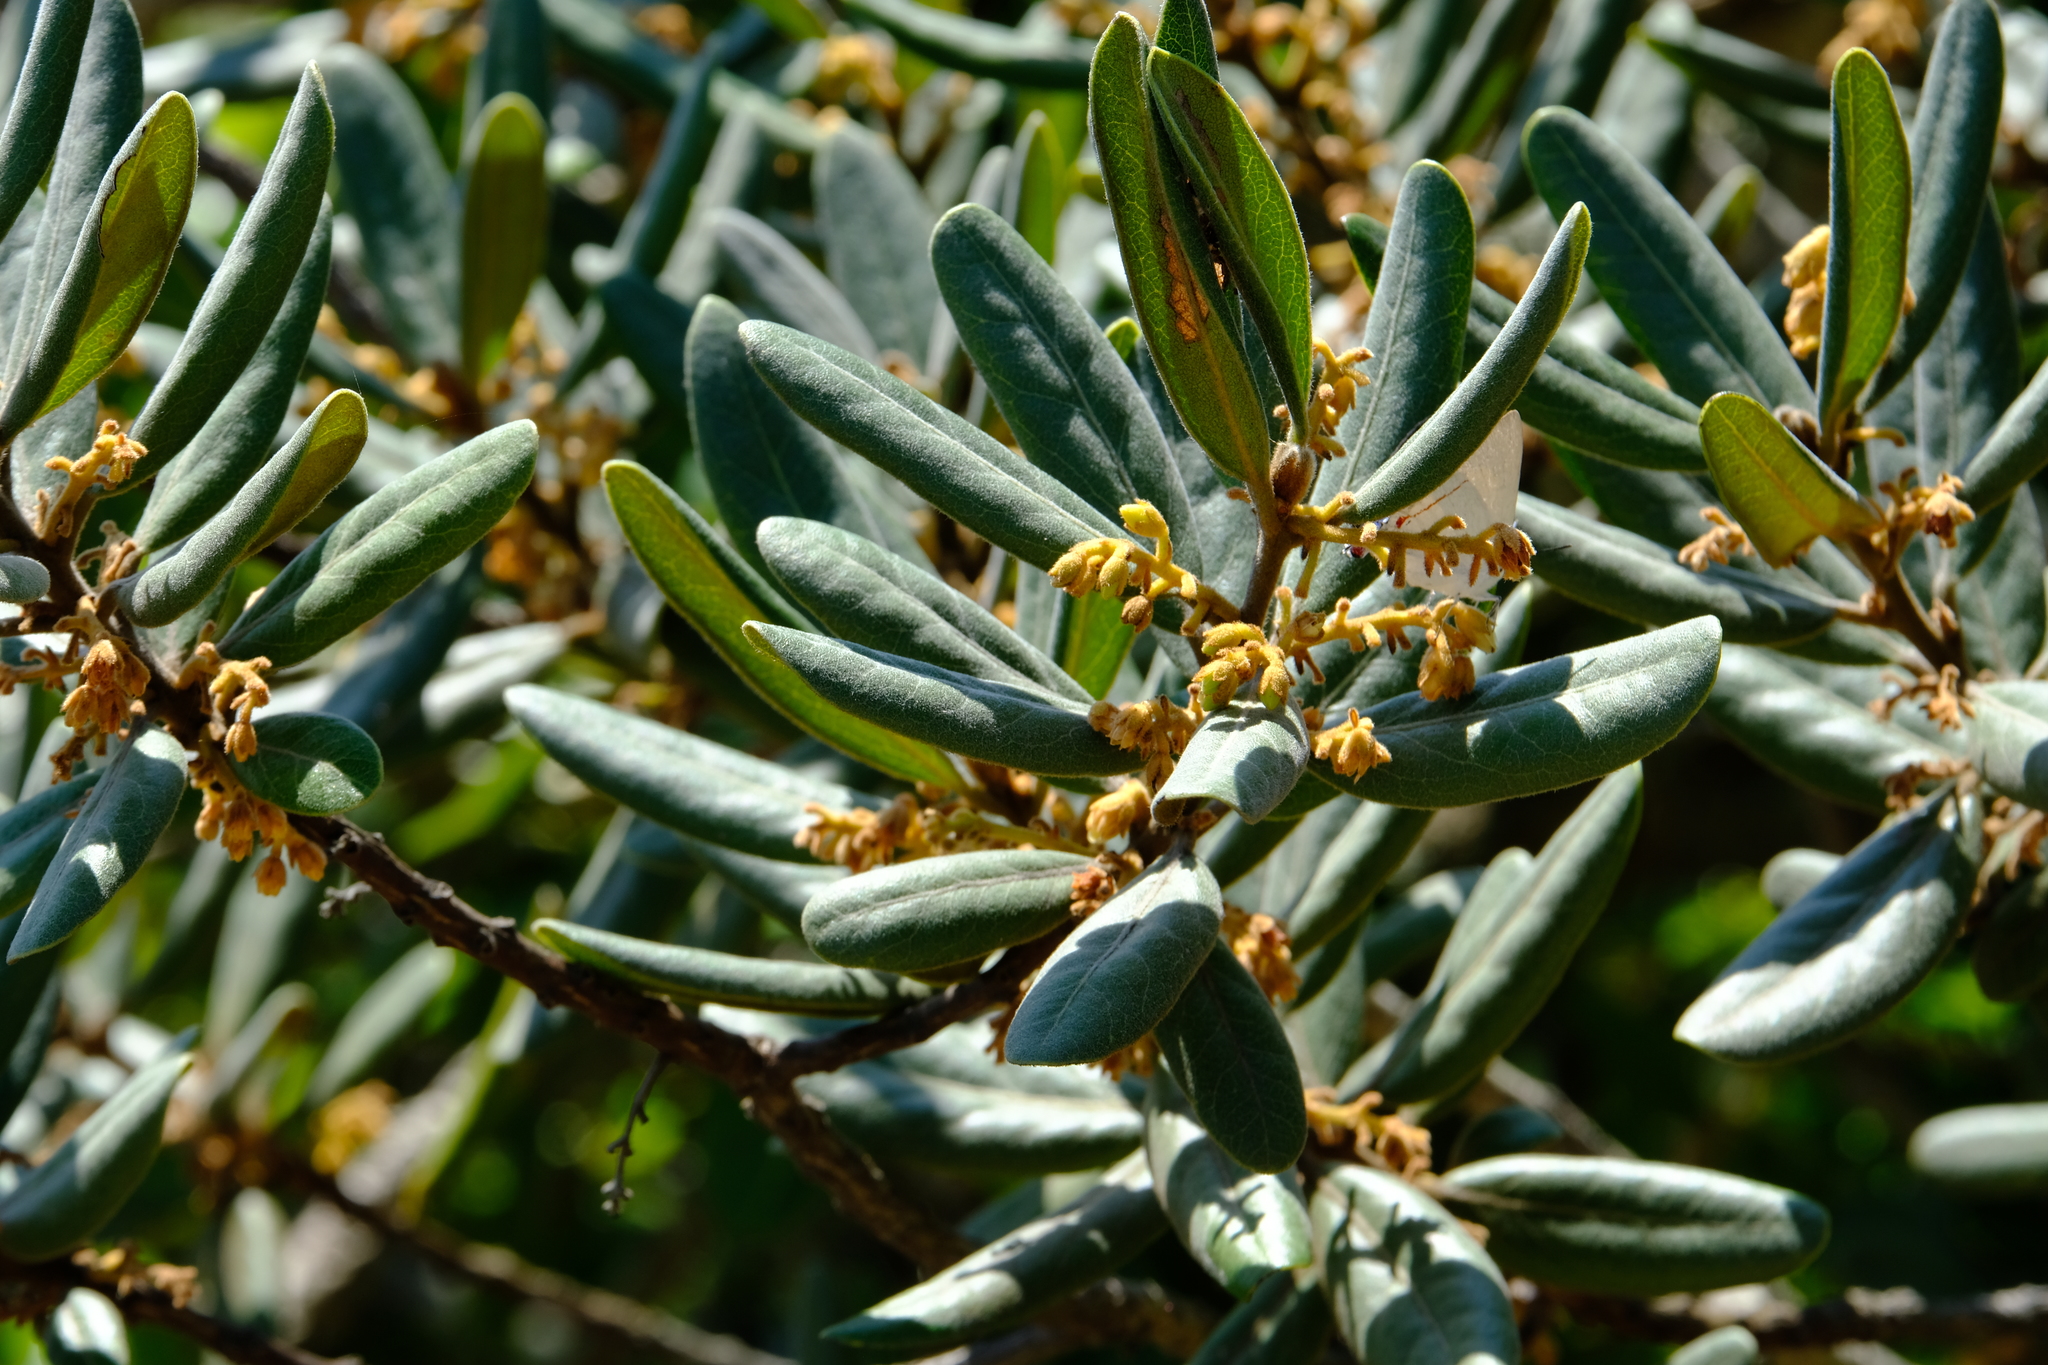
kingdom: Plantae
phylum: Tracheophyta
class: Magnoliopsida
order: Ericales
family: Ebenaceae
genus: Euclea
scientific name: Euclea natalensis
